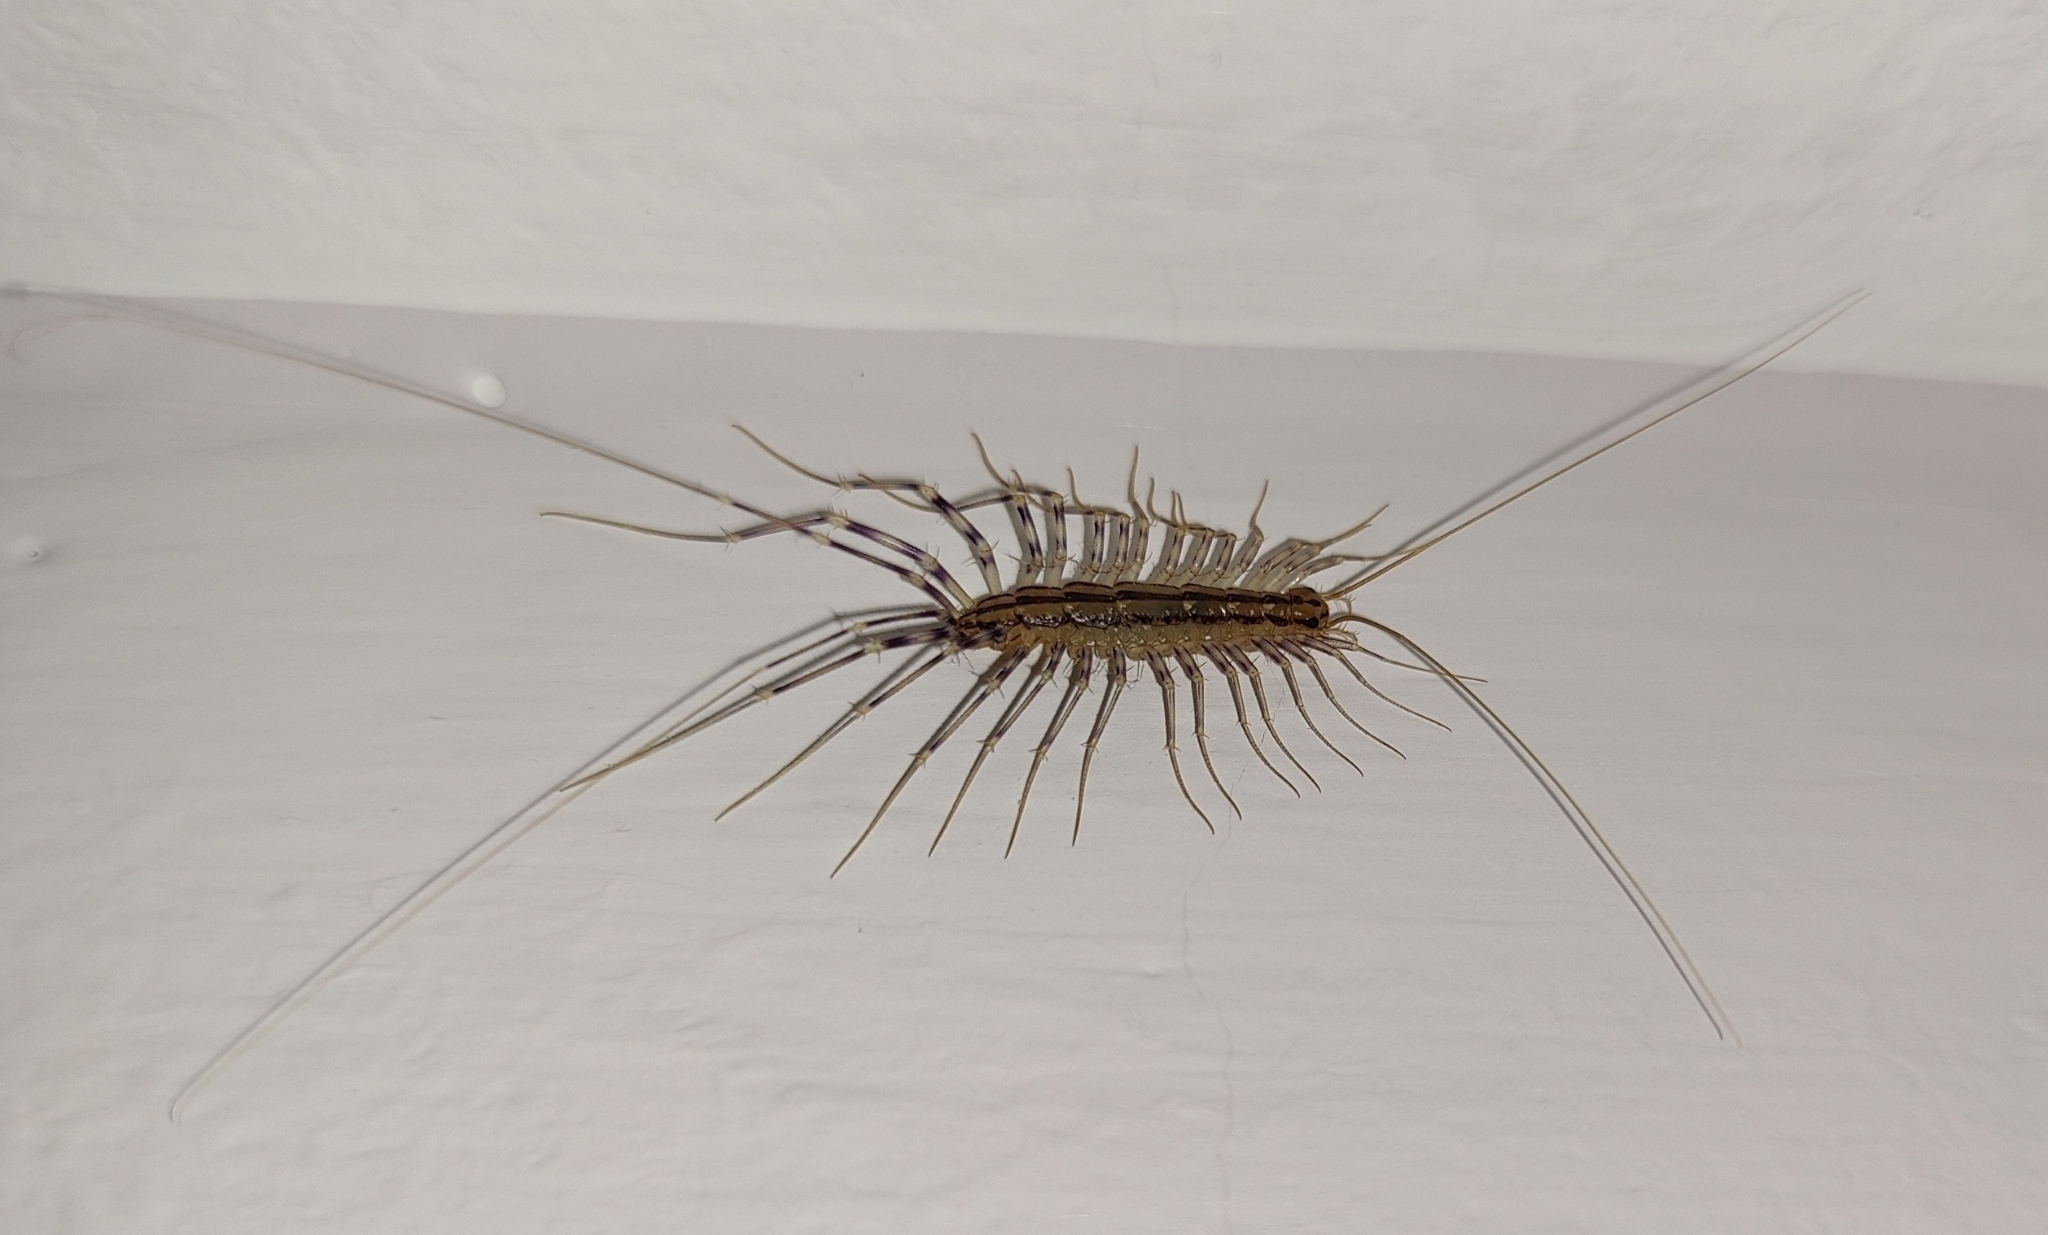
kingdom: Animalia
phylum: Arthropoda
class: Chilopoda
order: Scutigeromorpha
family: Scutigeridae
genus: Scutigera
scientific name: Scutigera coleoptrata
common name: House centipede
